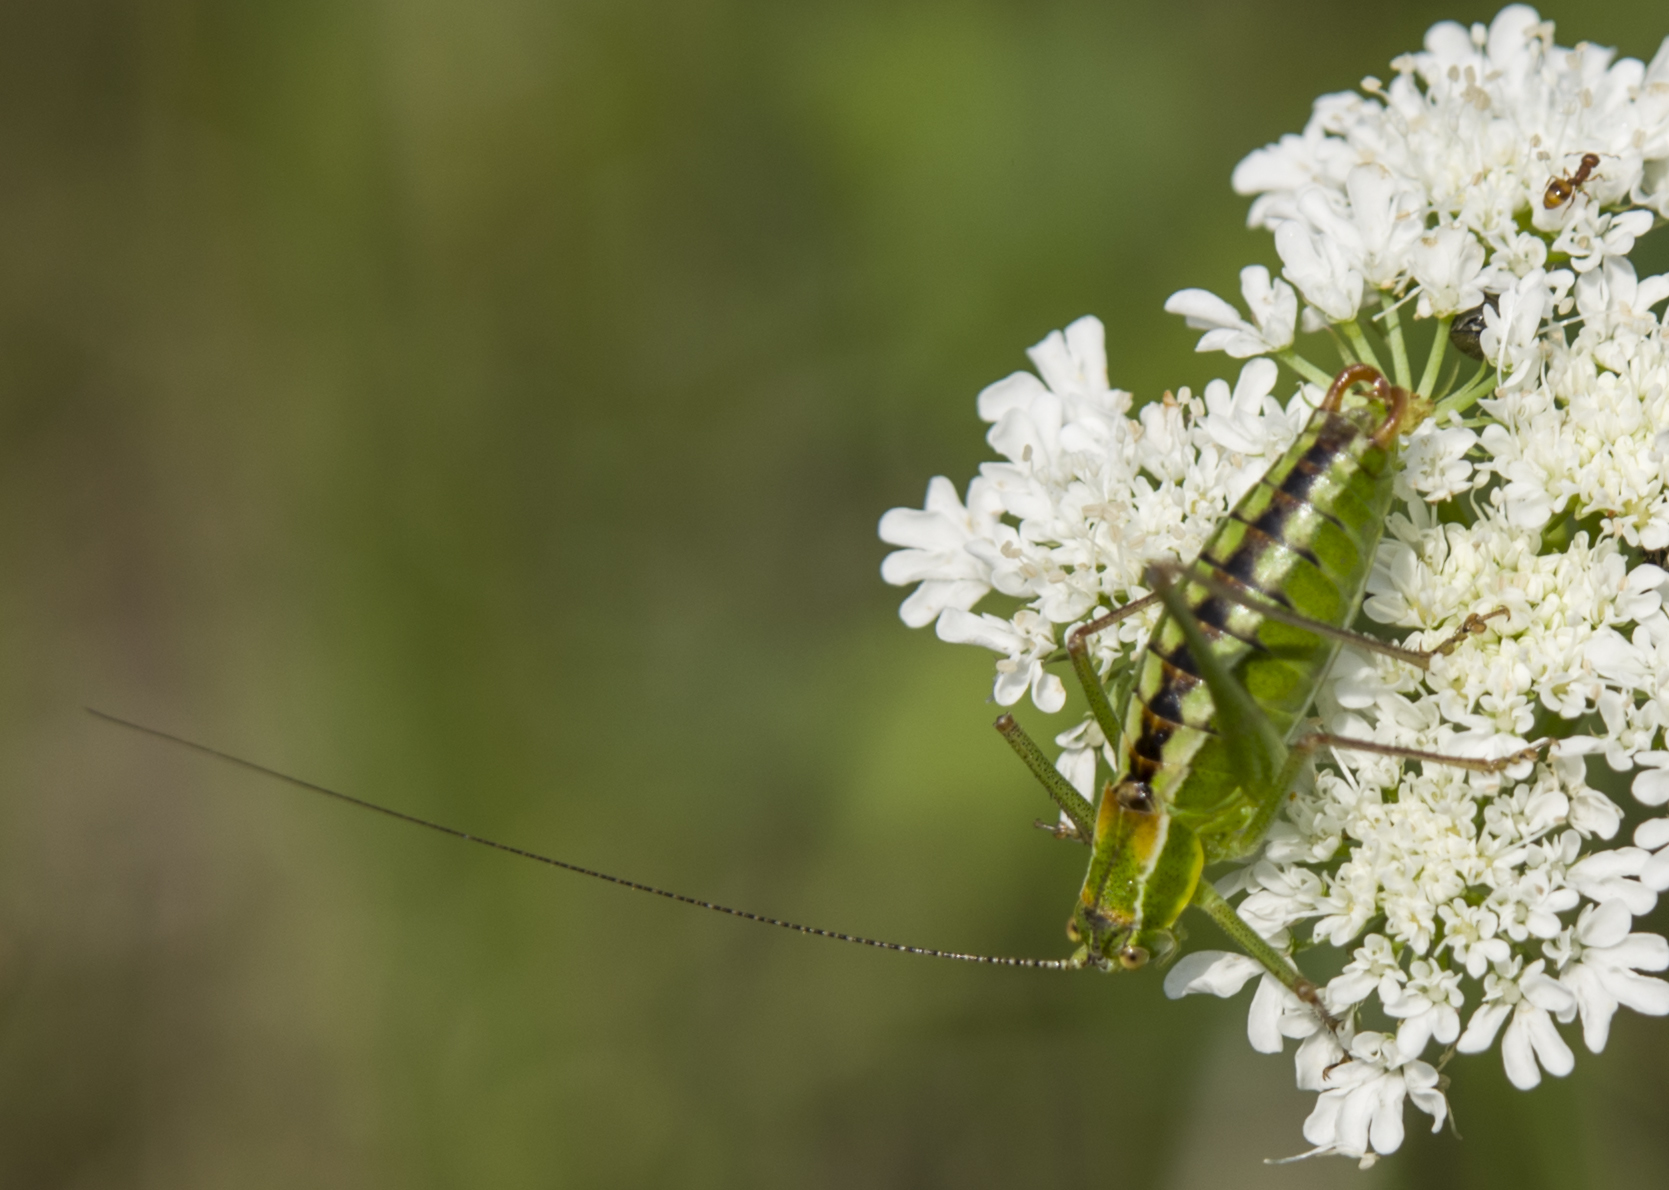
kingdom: Animalia
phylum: Arthropoda
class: Insecta
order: Orthoptera
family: Tettigoniidae
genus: Poecilimon
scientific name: Poecilimon fussii
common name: Fuss' bright bush-cricket
